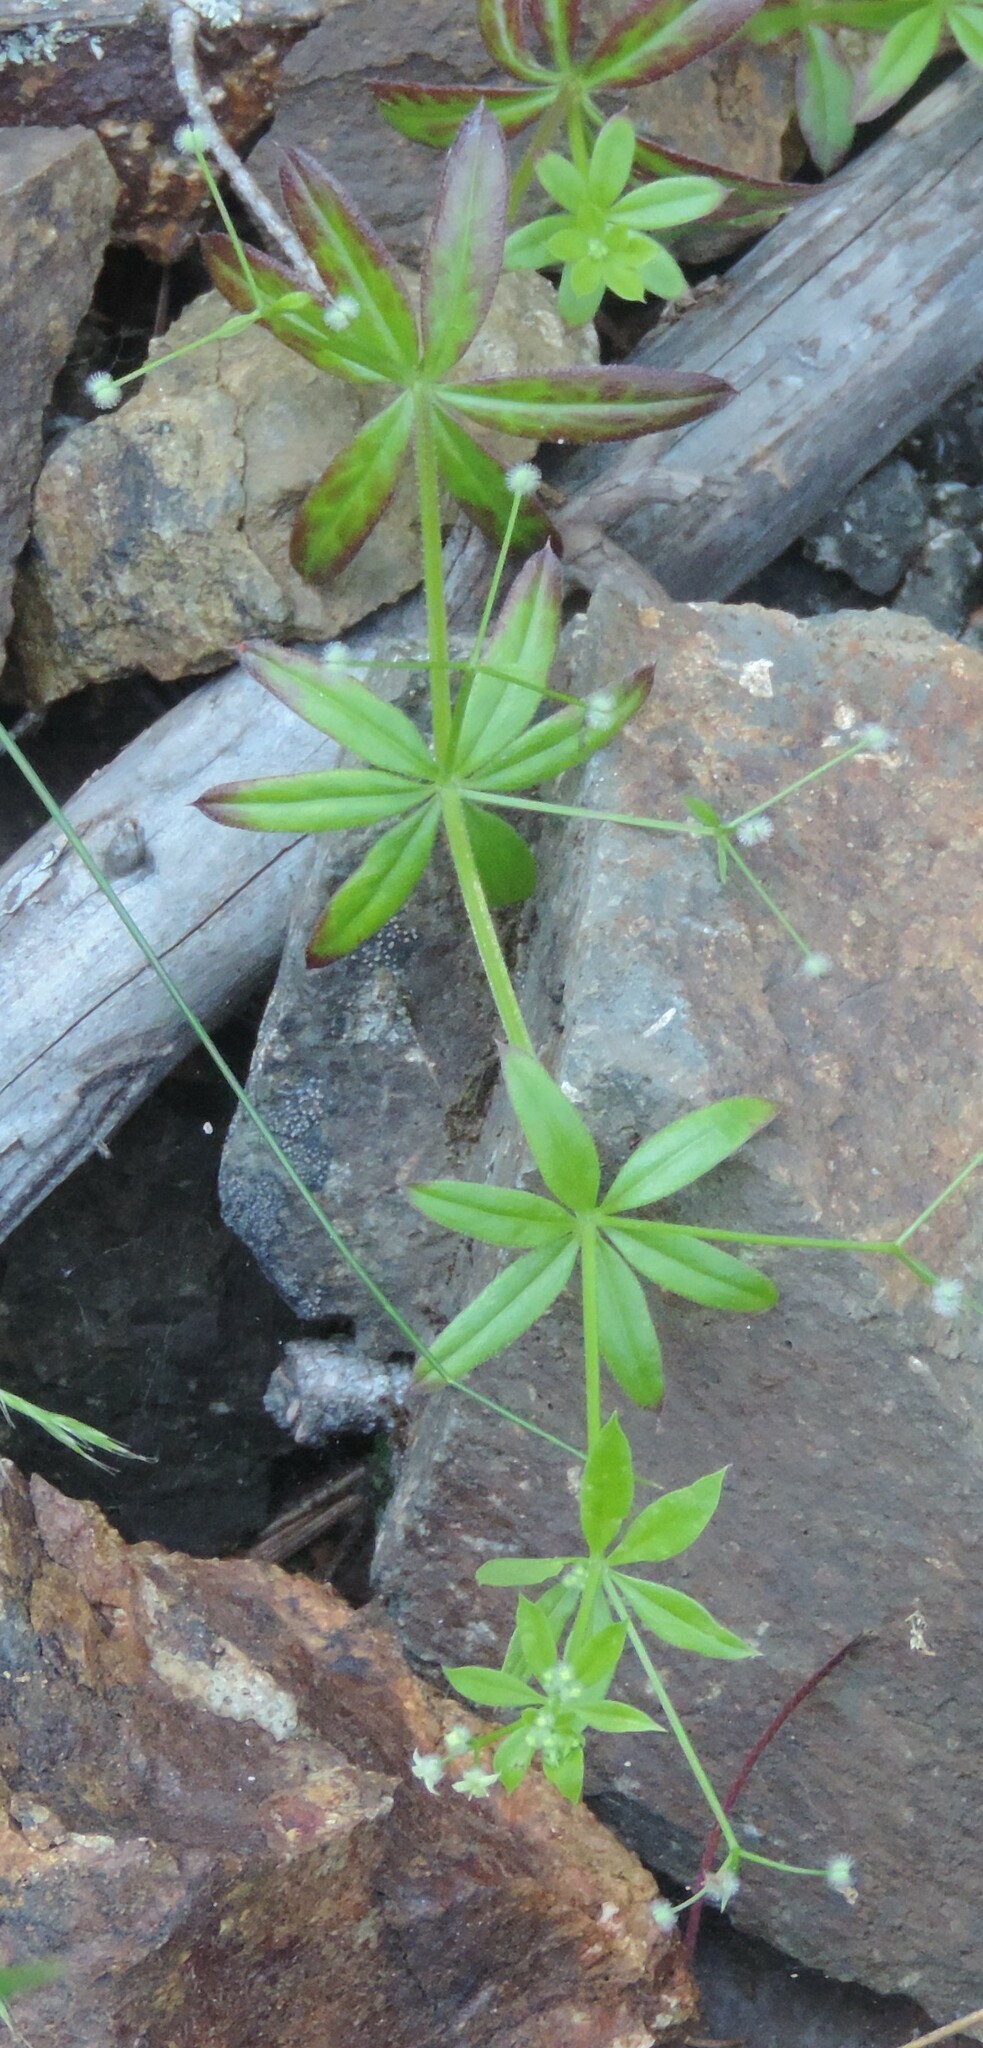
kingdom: Plantae
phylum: Tracheophyta
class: Magnoliopsida
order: Gentianales
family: Rubiaceae
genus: Galium
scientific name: Galium triflorum
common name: Fragrant bedstraw
